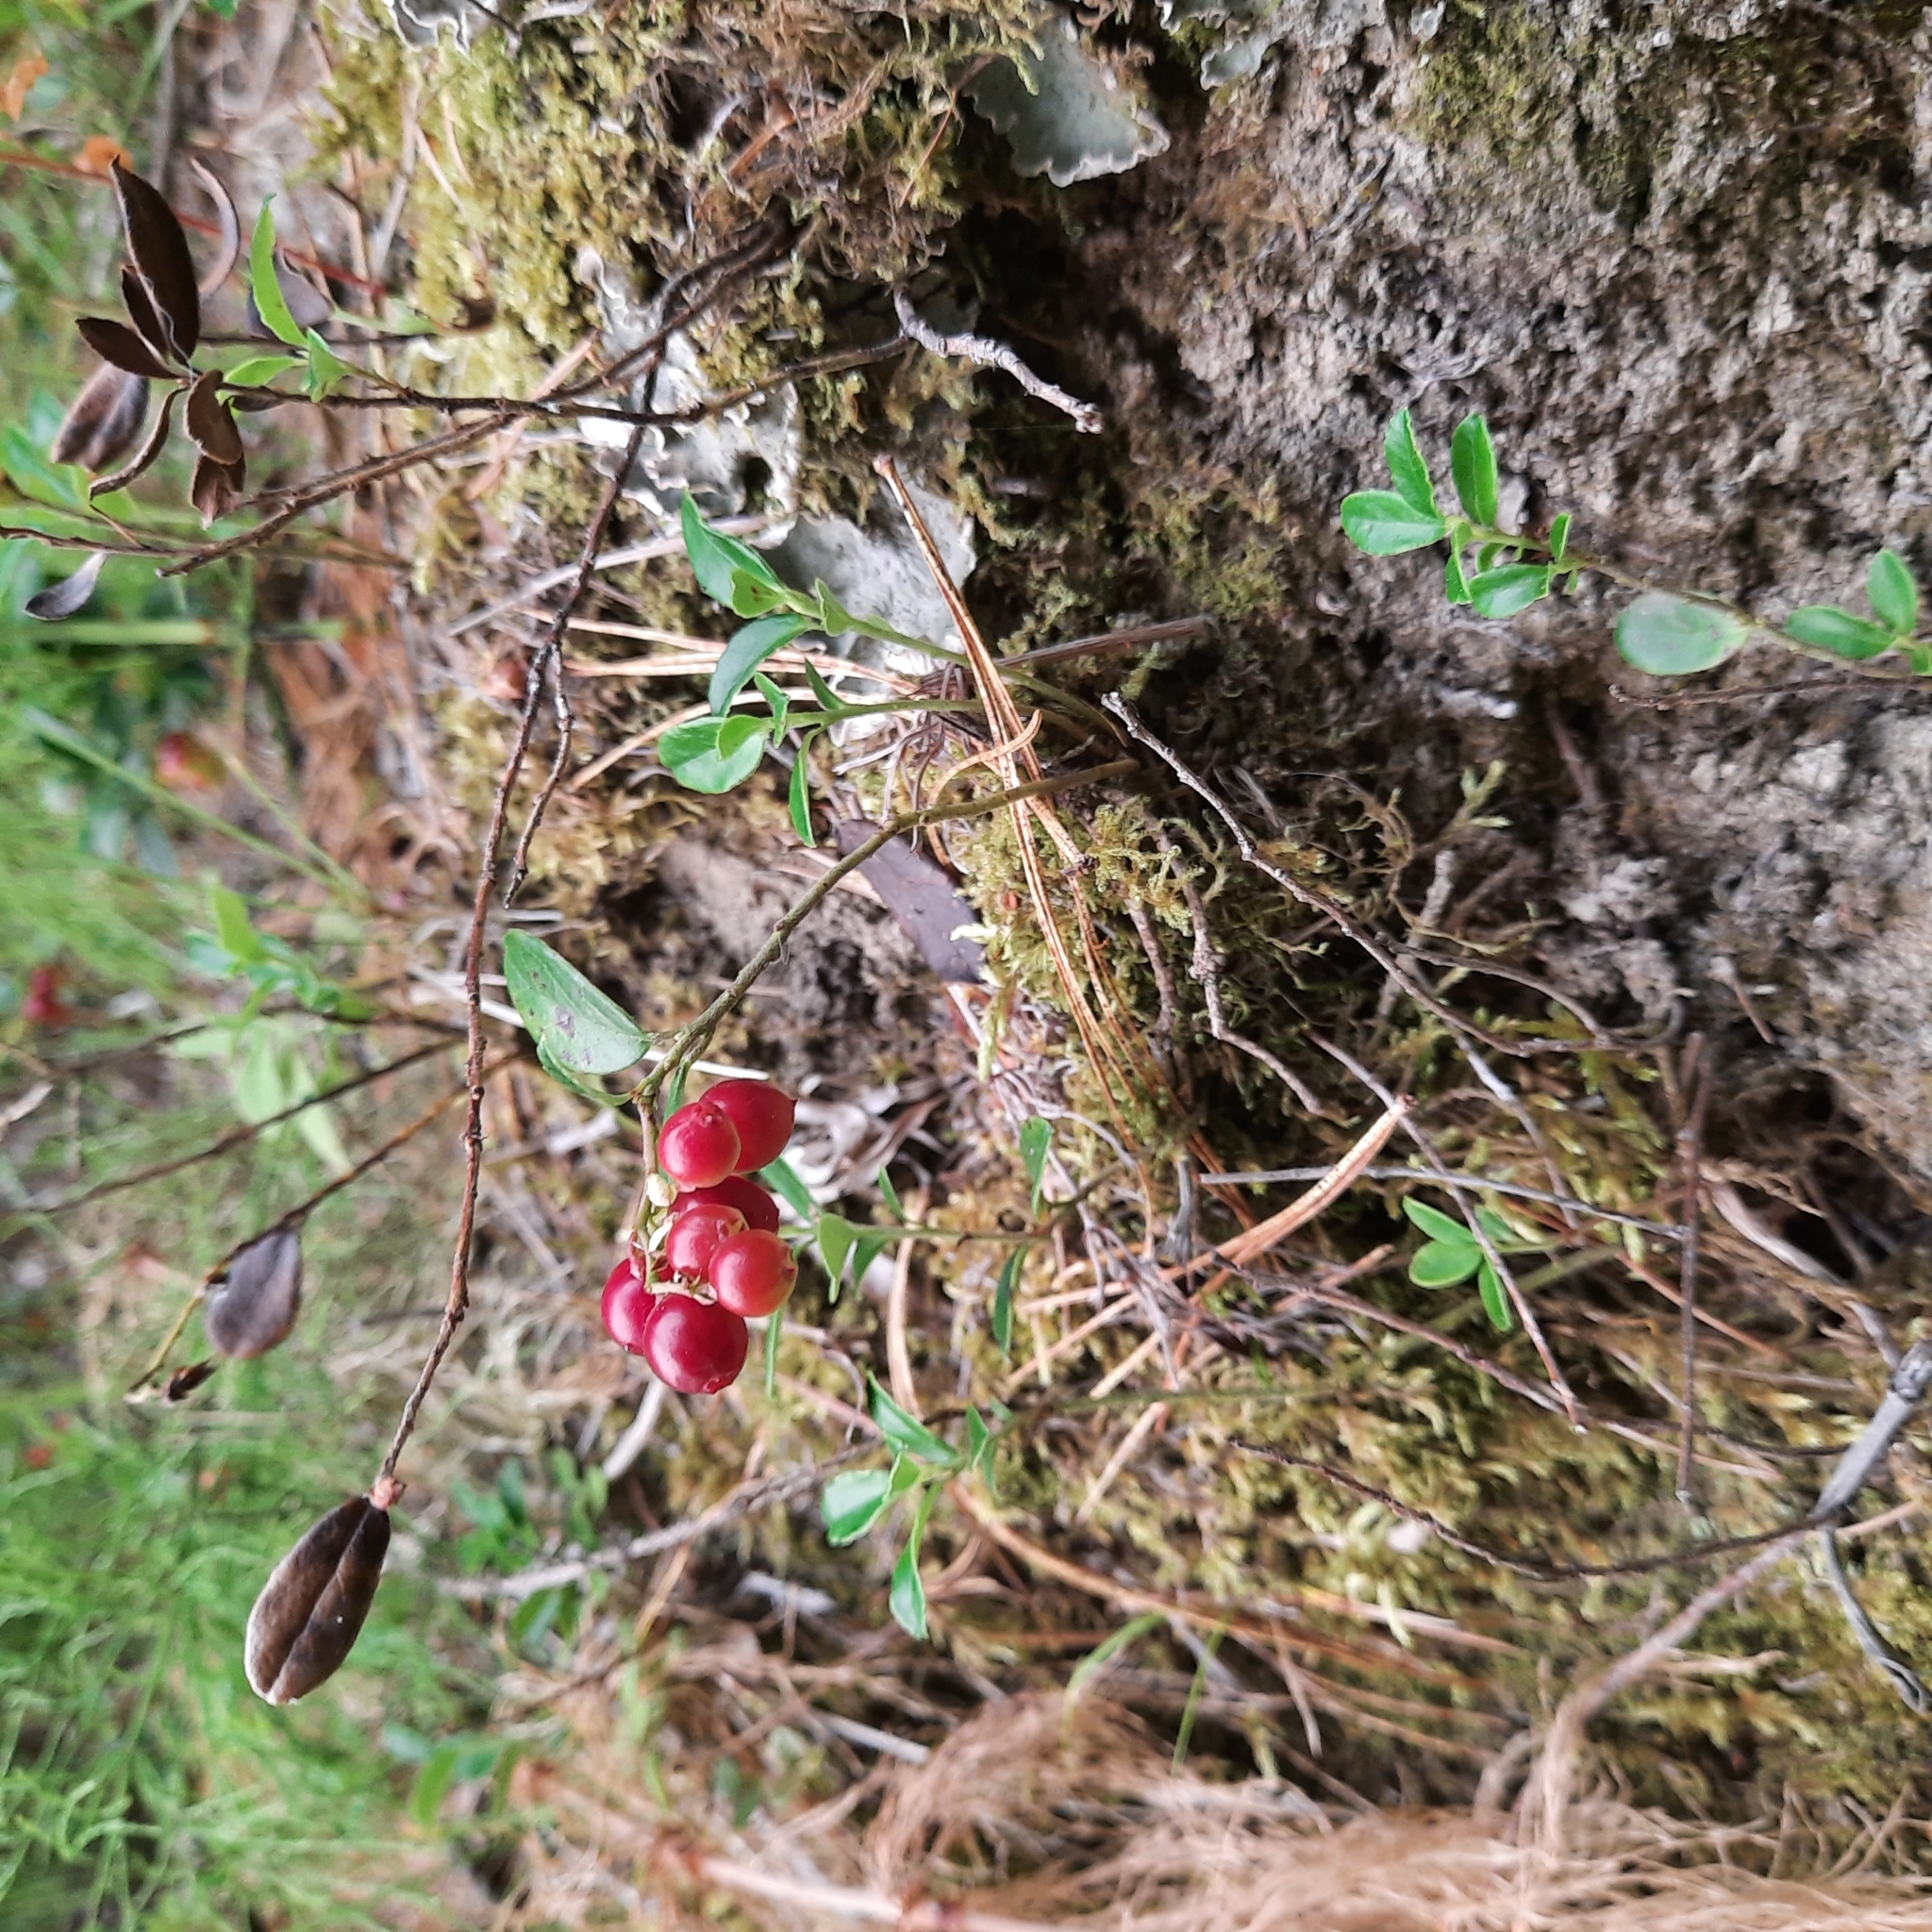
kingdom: Plantae
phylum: Tracheophyta
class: Magnoliopsida
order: Ericales
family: Ericaceae
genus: Vaccinium
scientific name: Vaccinium vitis-idaea
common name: Cowberry
